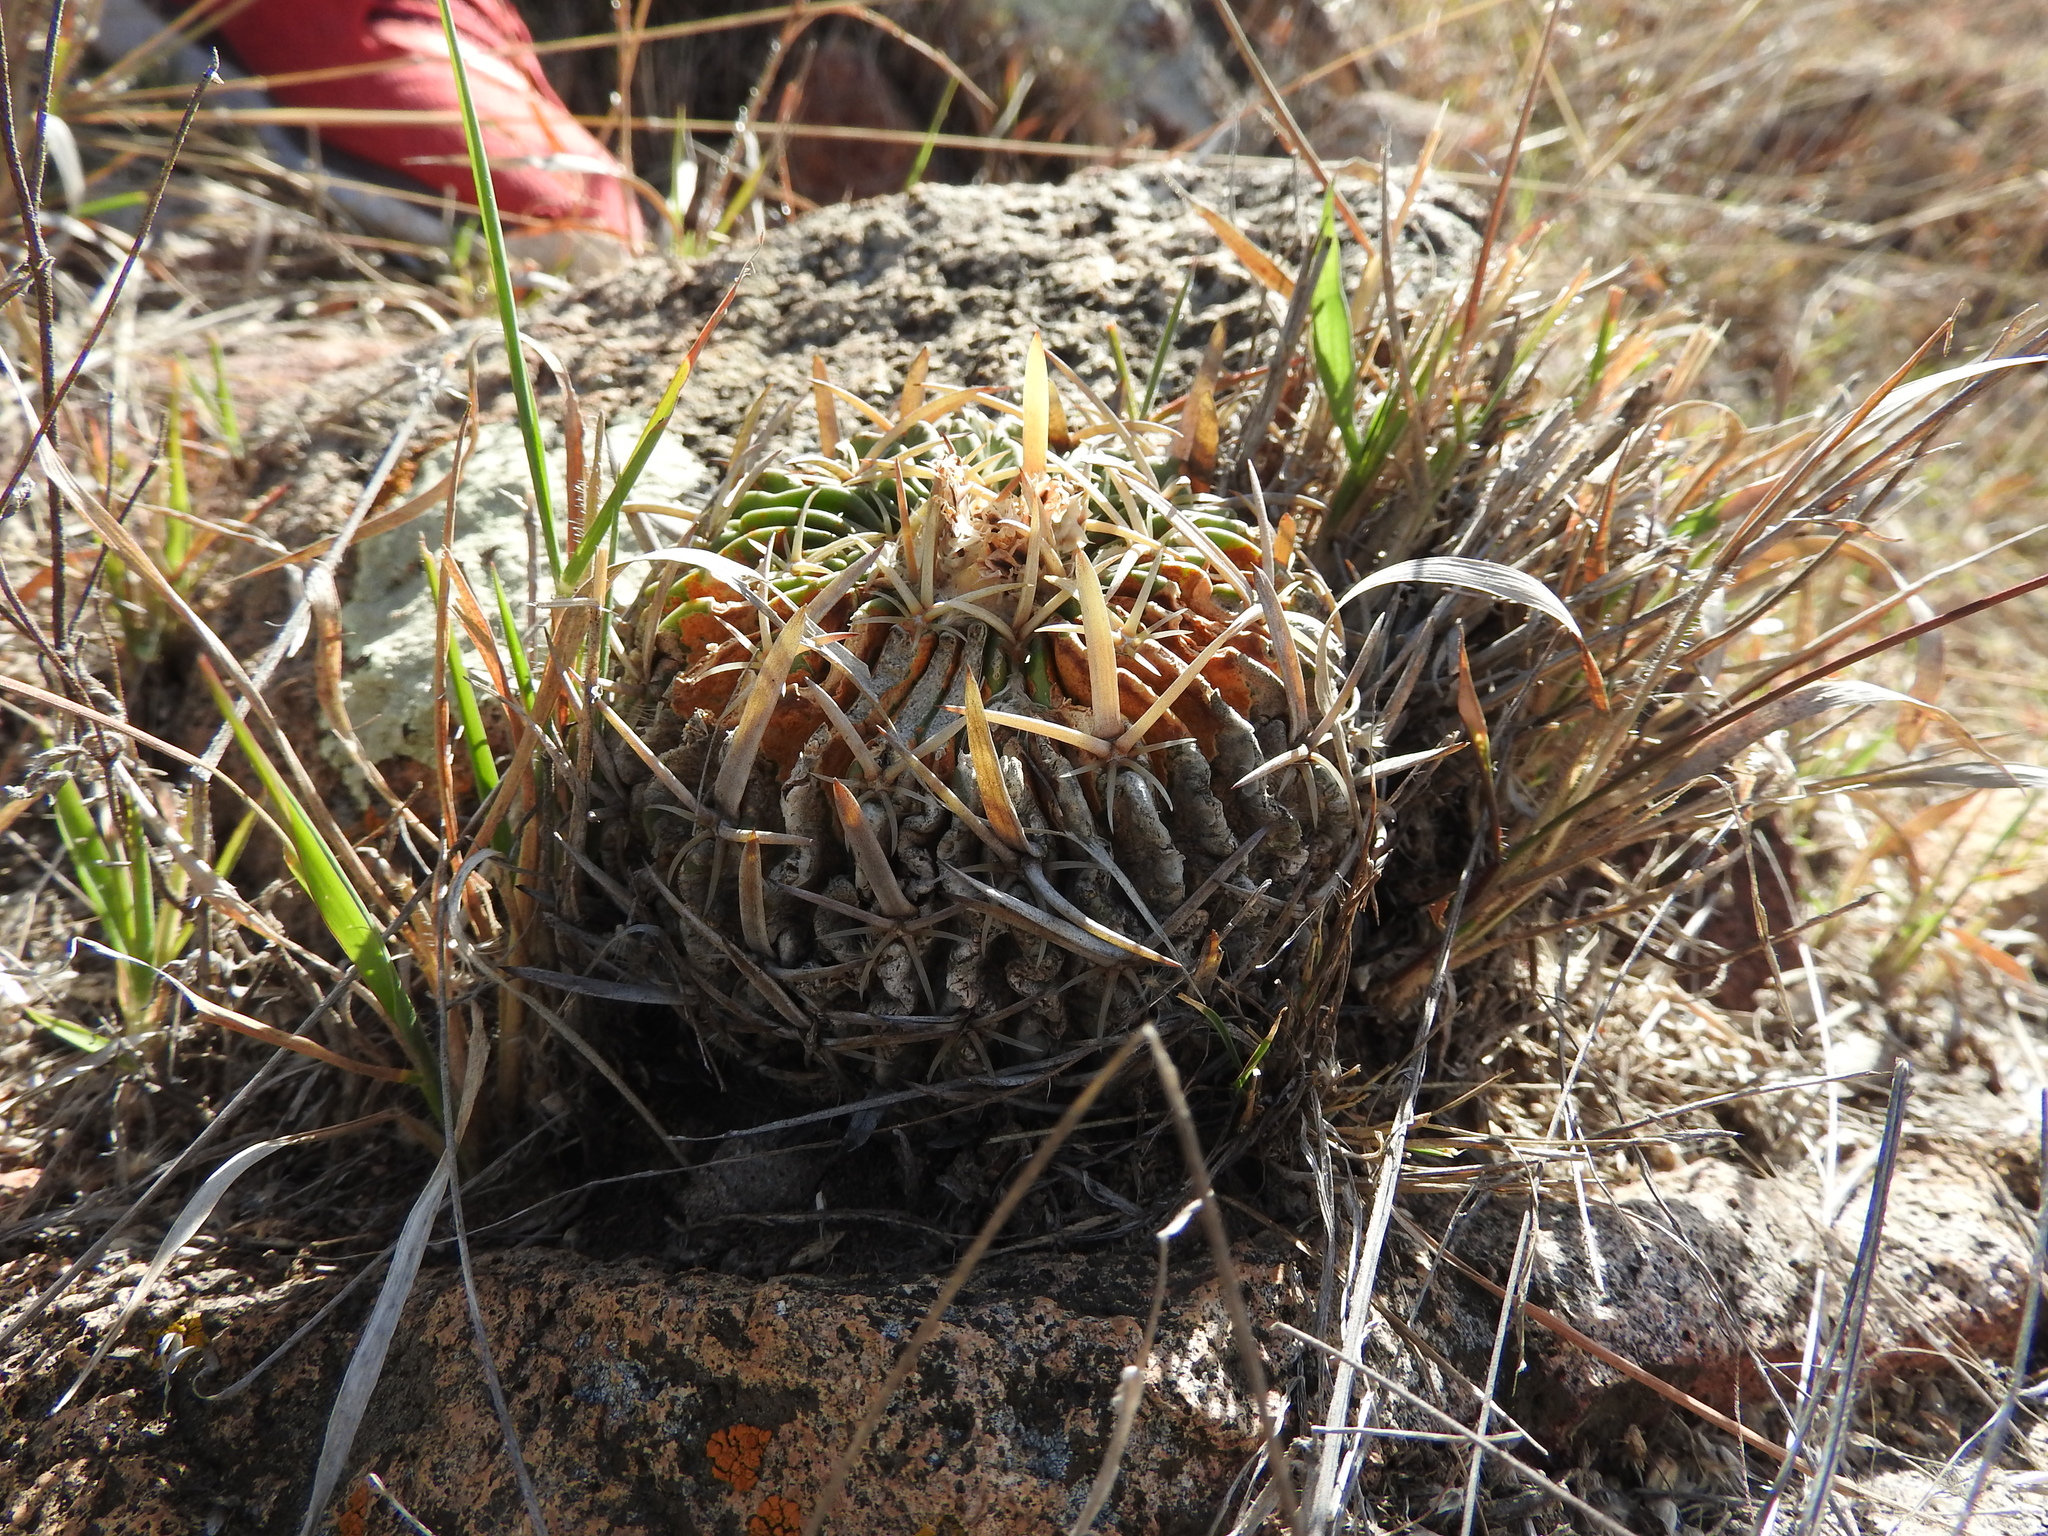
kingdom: Plantae
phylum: Tracheophyta
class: Magnoliopsida
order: Caryophyllales
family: Cactaceae
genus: Stenocactus
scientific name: Stenocactus crispatus
